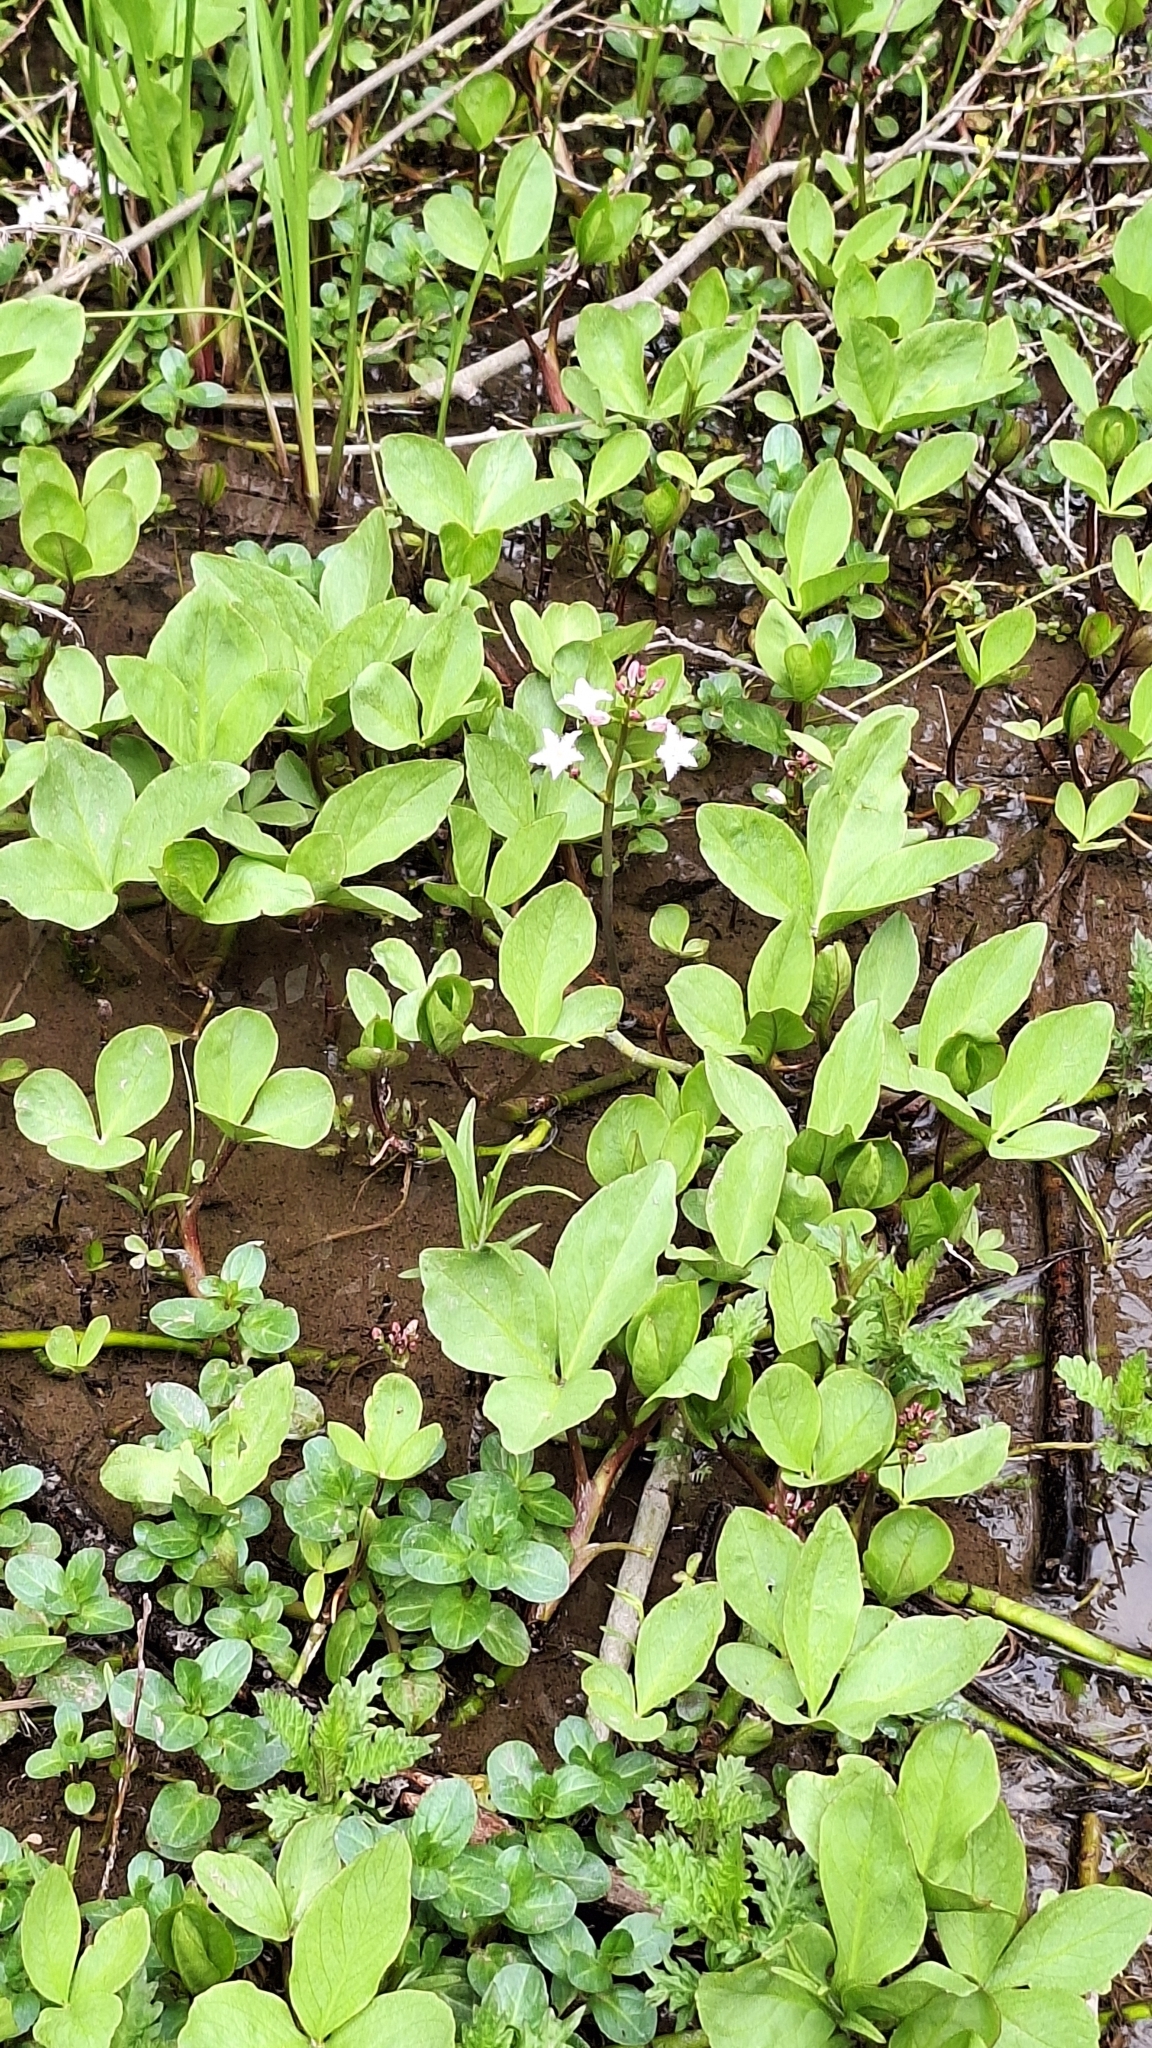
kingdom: Plantae
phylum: Tracheophyta
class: Magnoliopsida
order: Asterales
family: Menyanthaceae
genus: Menyanthes
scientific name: Menyanthes trifoliata
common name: Bogbean
